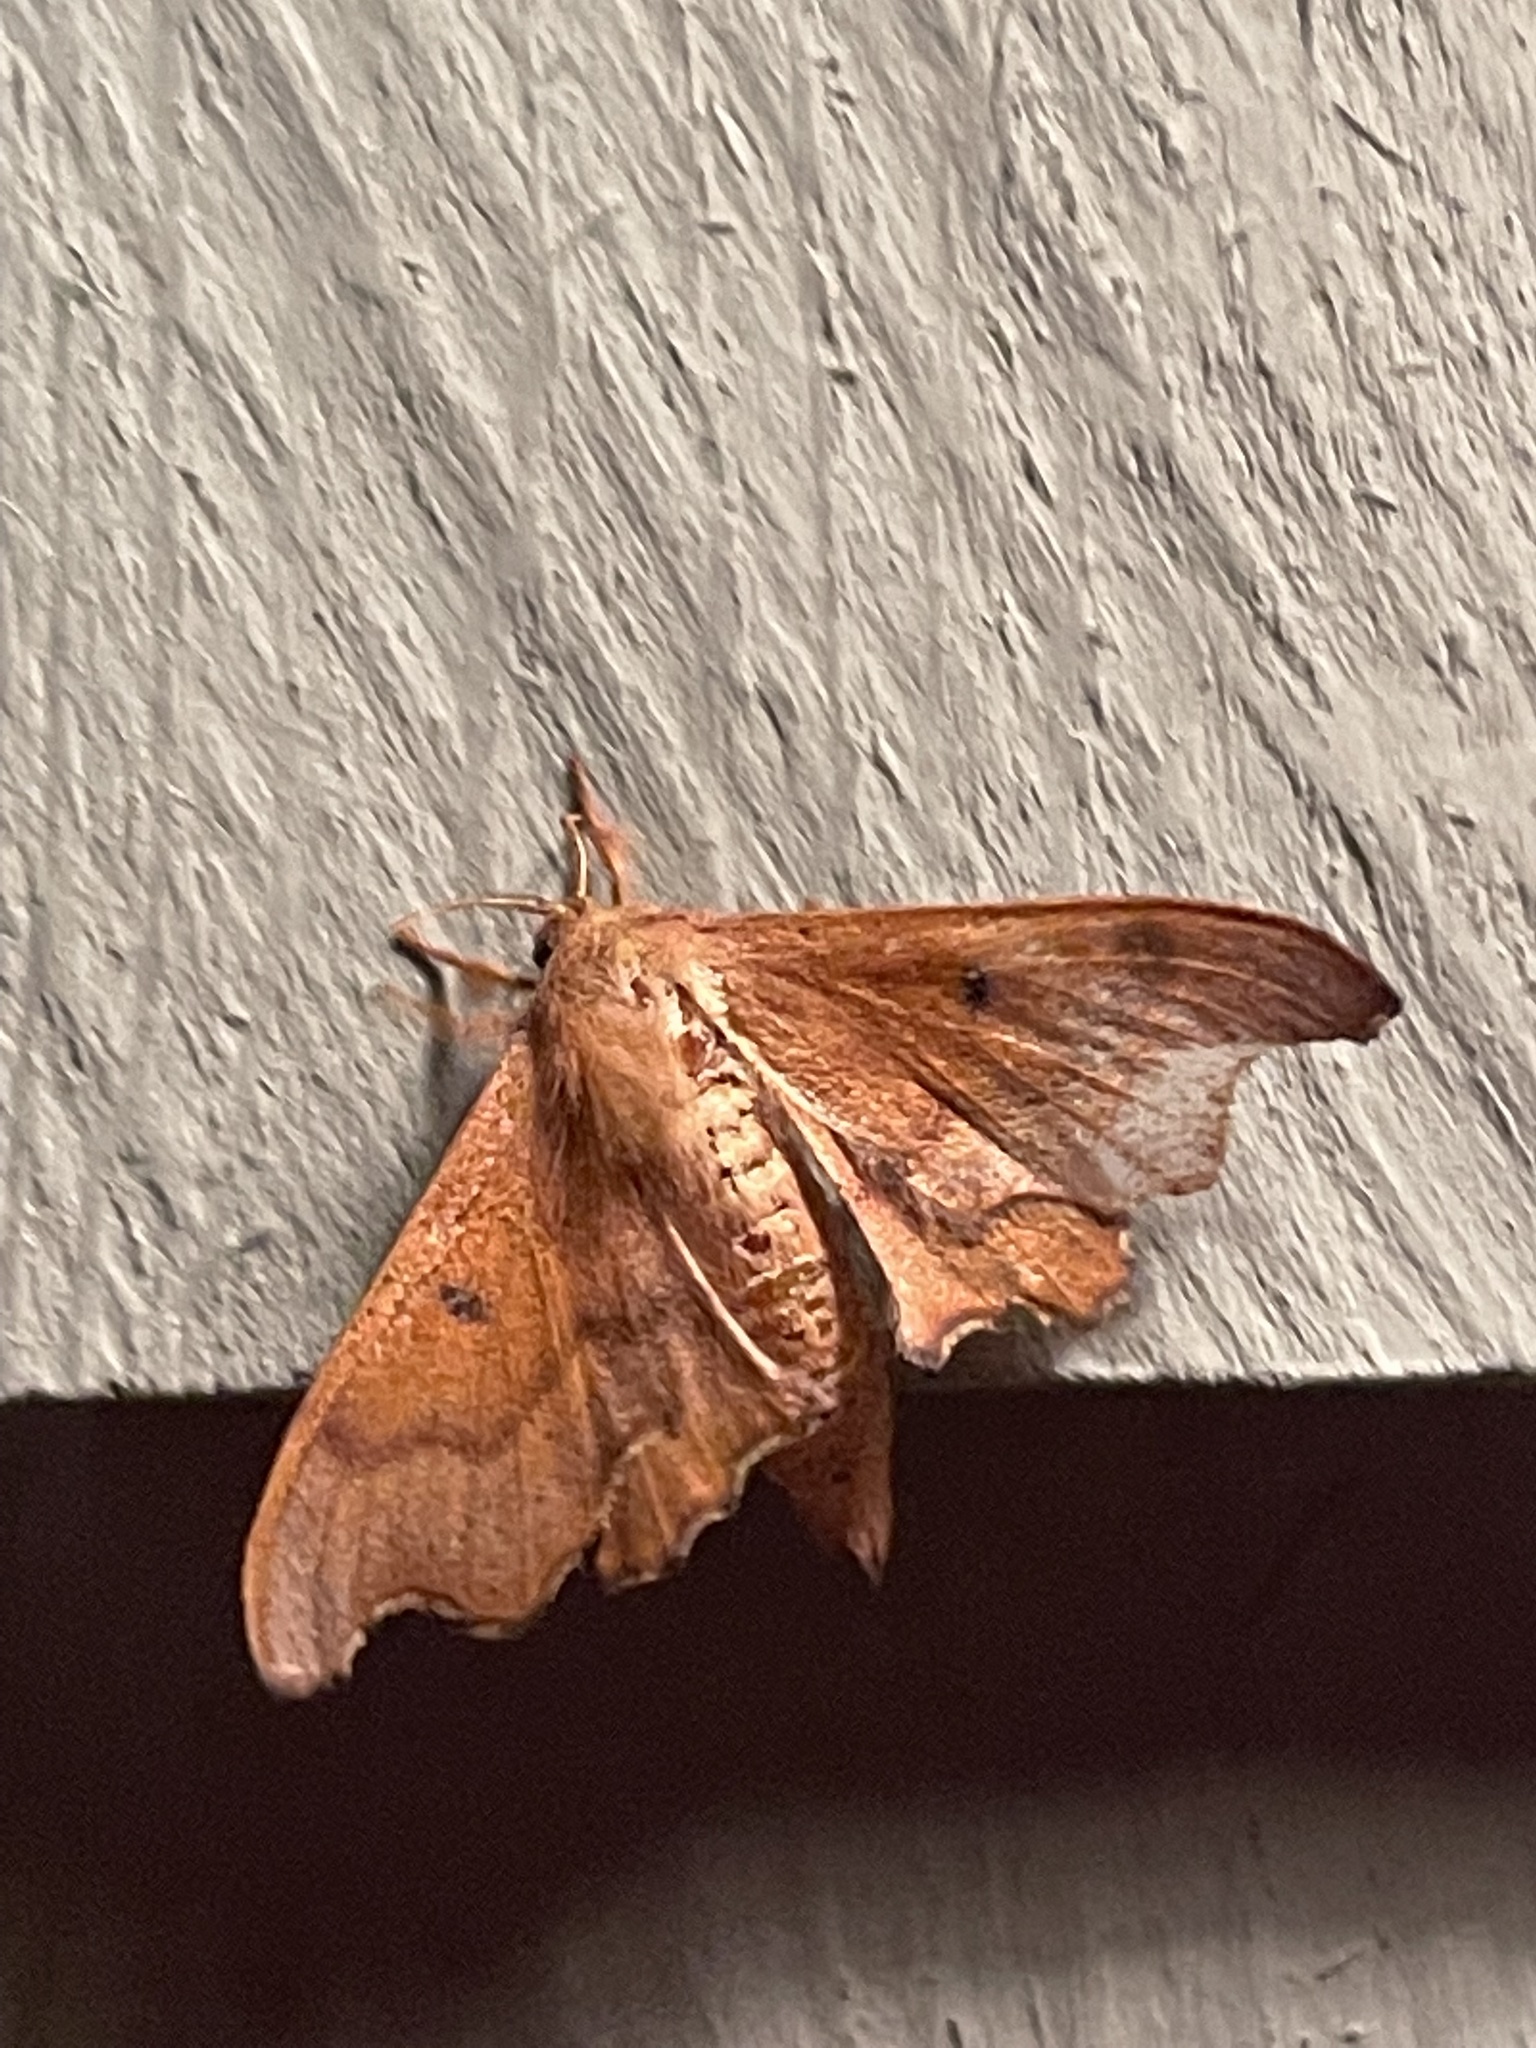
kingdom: Animalia
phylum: Arthropoda
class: Insecta
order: Lepidoptera
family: Mimallonidae
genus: Lacosoma
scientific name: Lacosoma chiridota
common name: Scalloped sack-bearer moth
